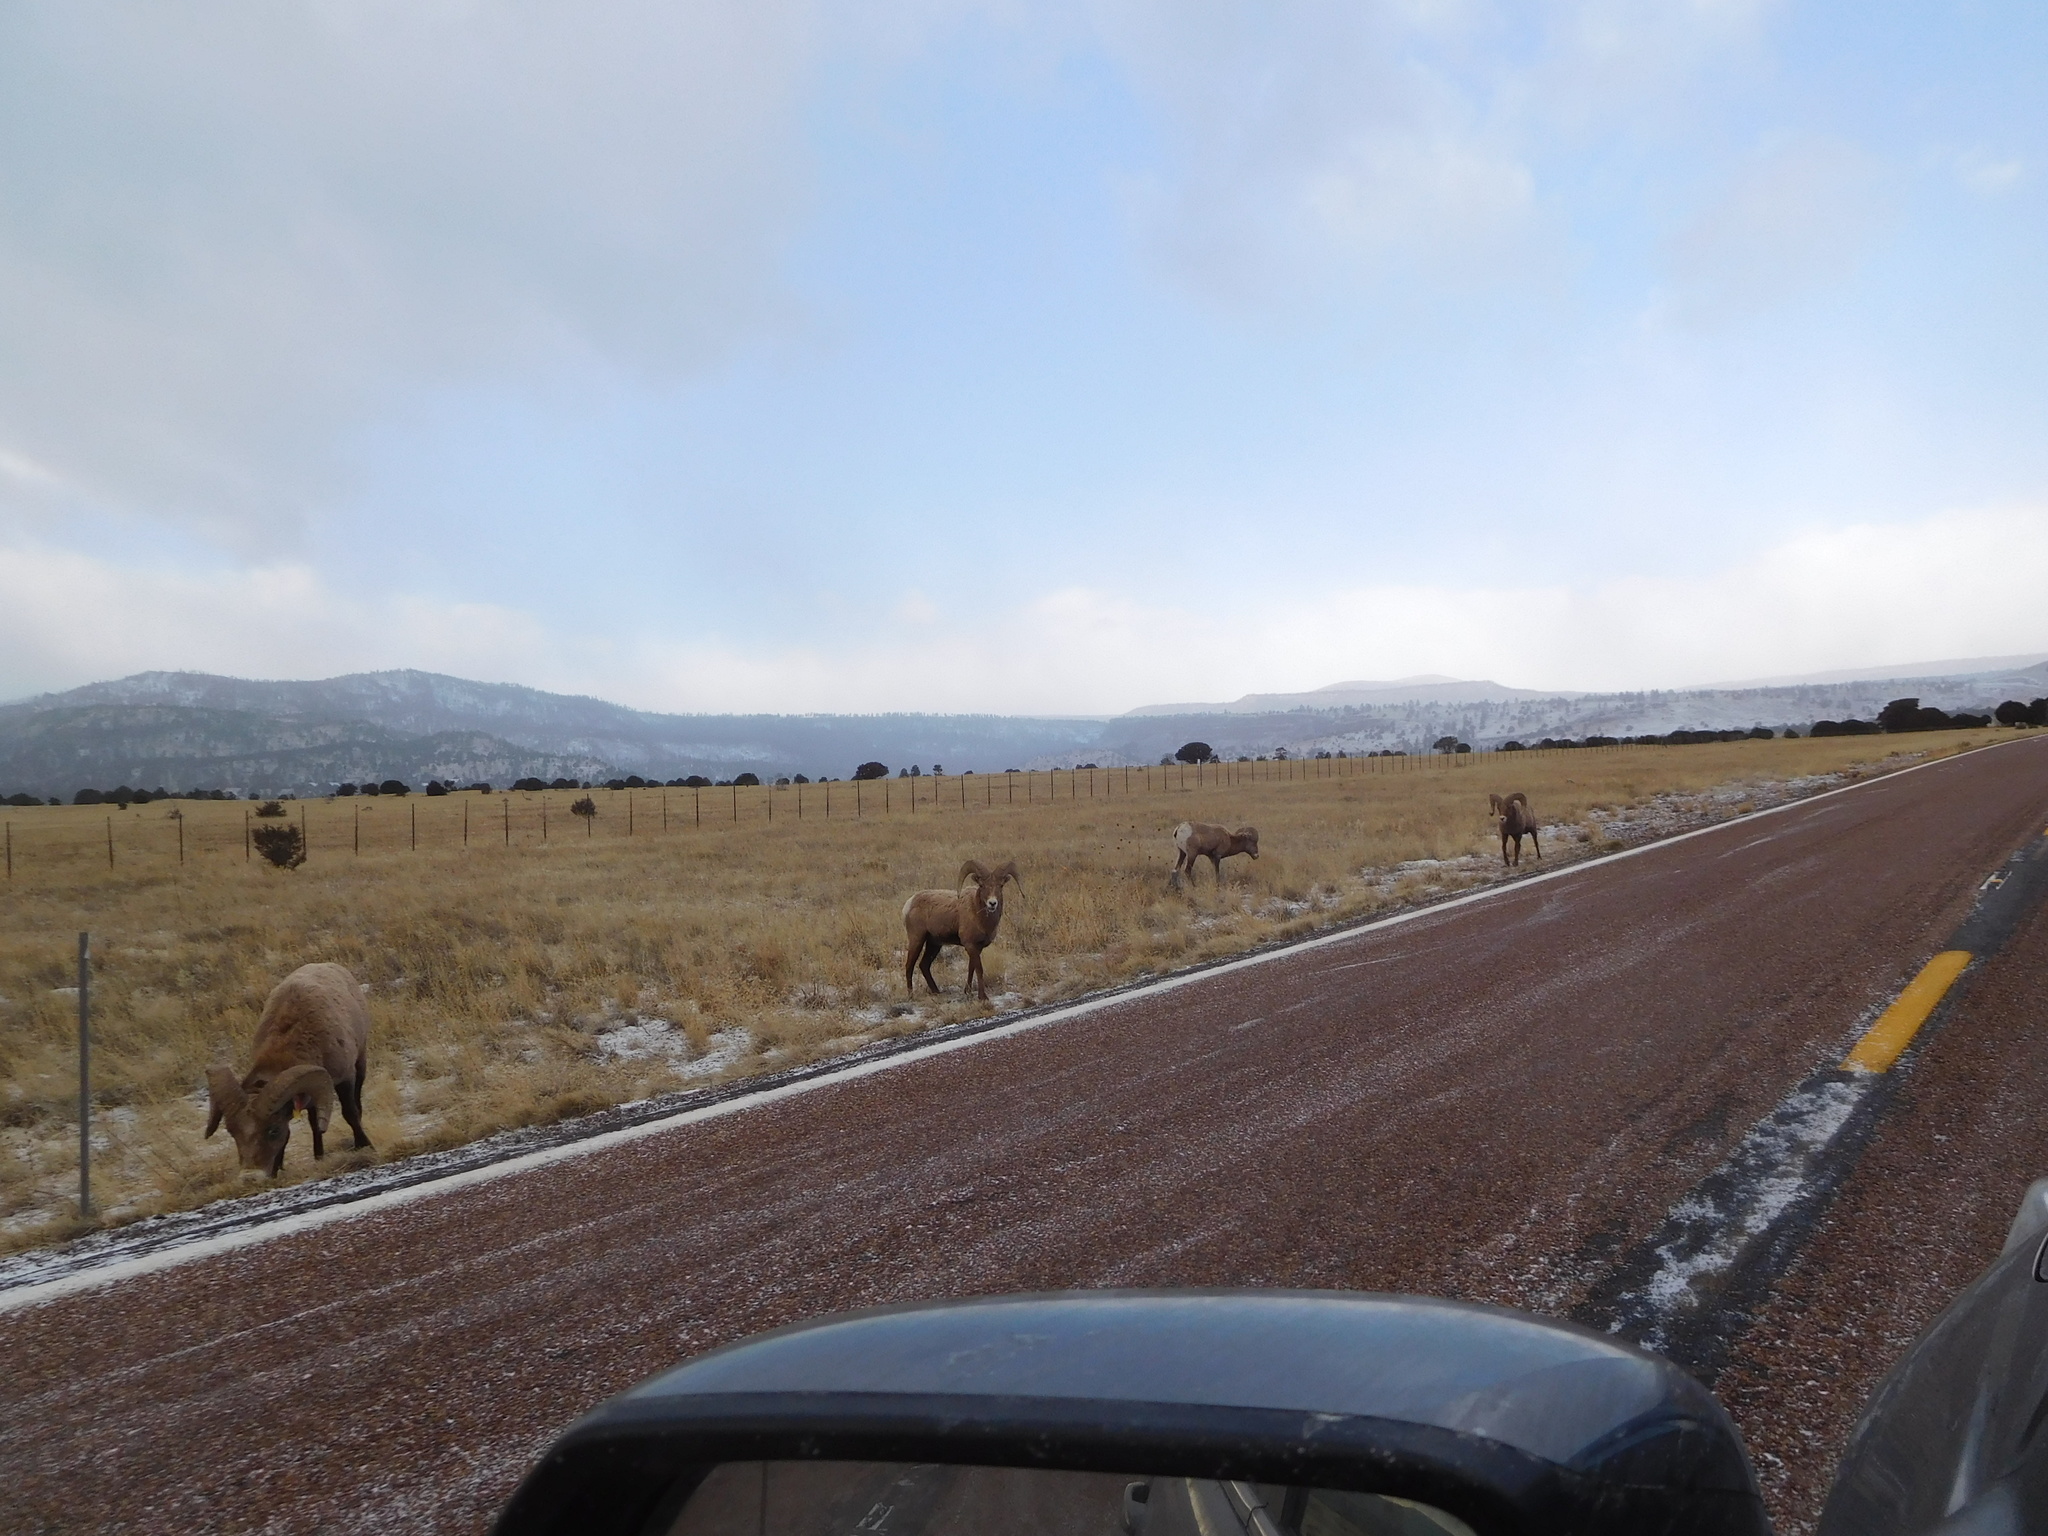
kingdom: Animalia
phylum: Chordata
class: Mammalia
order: Artiodactyla
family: Bovidae
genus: Ovis
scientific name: Ovis canadensis
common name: Bighorn sheep
